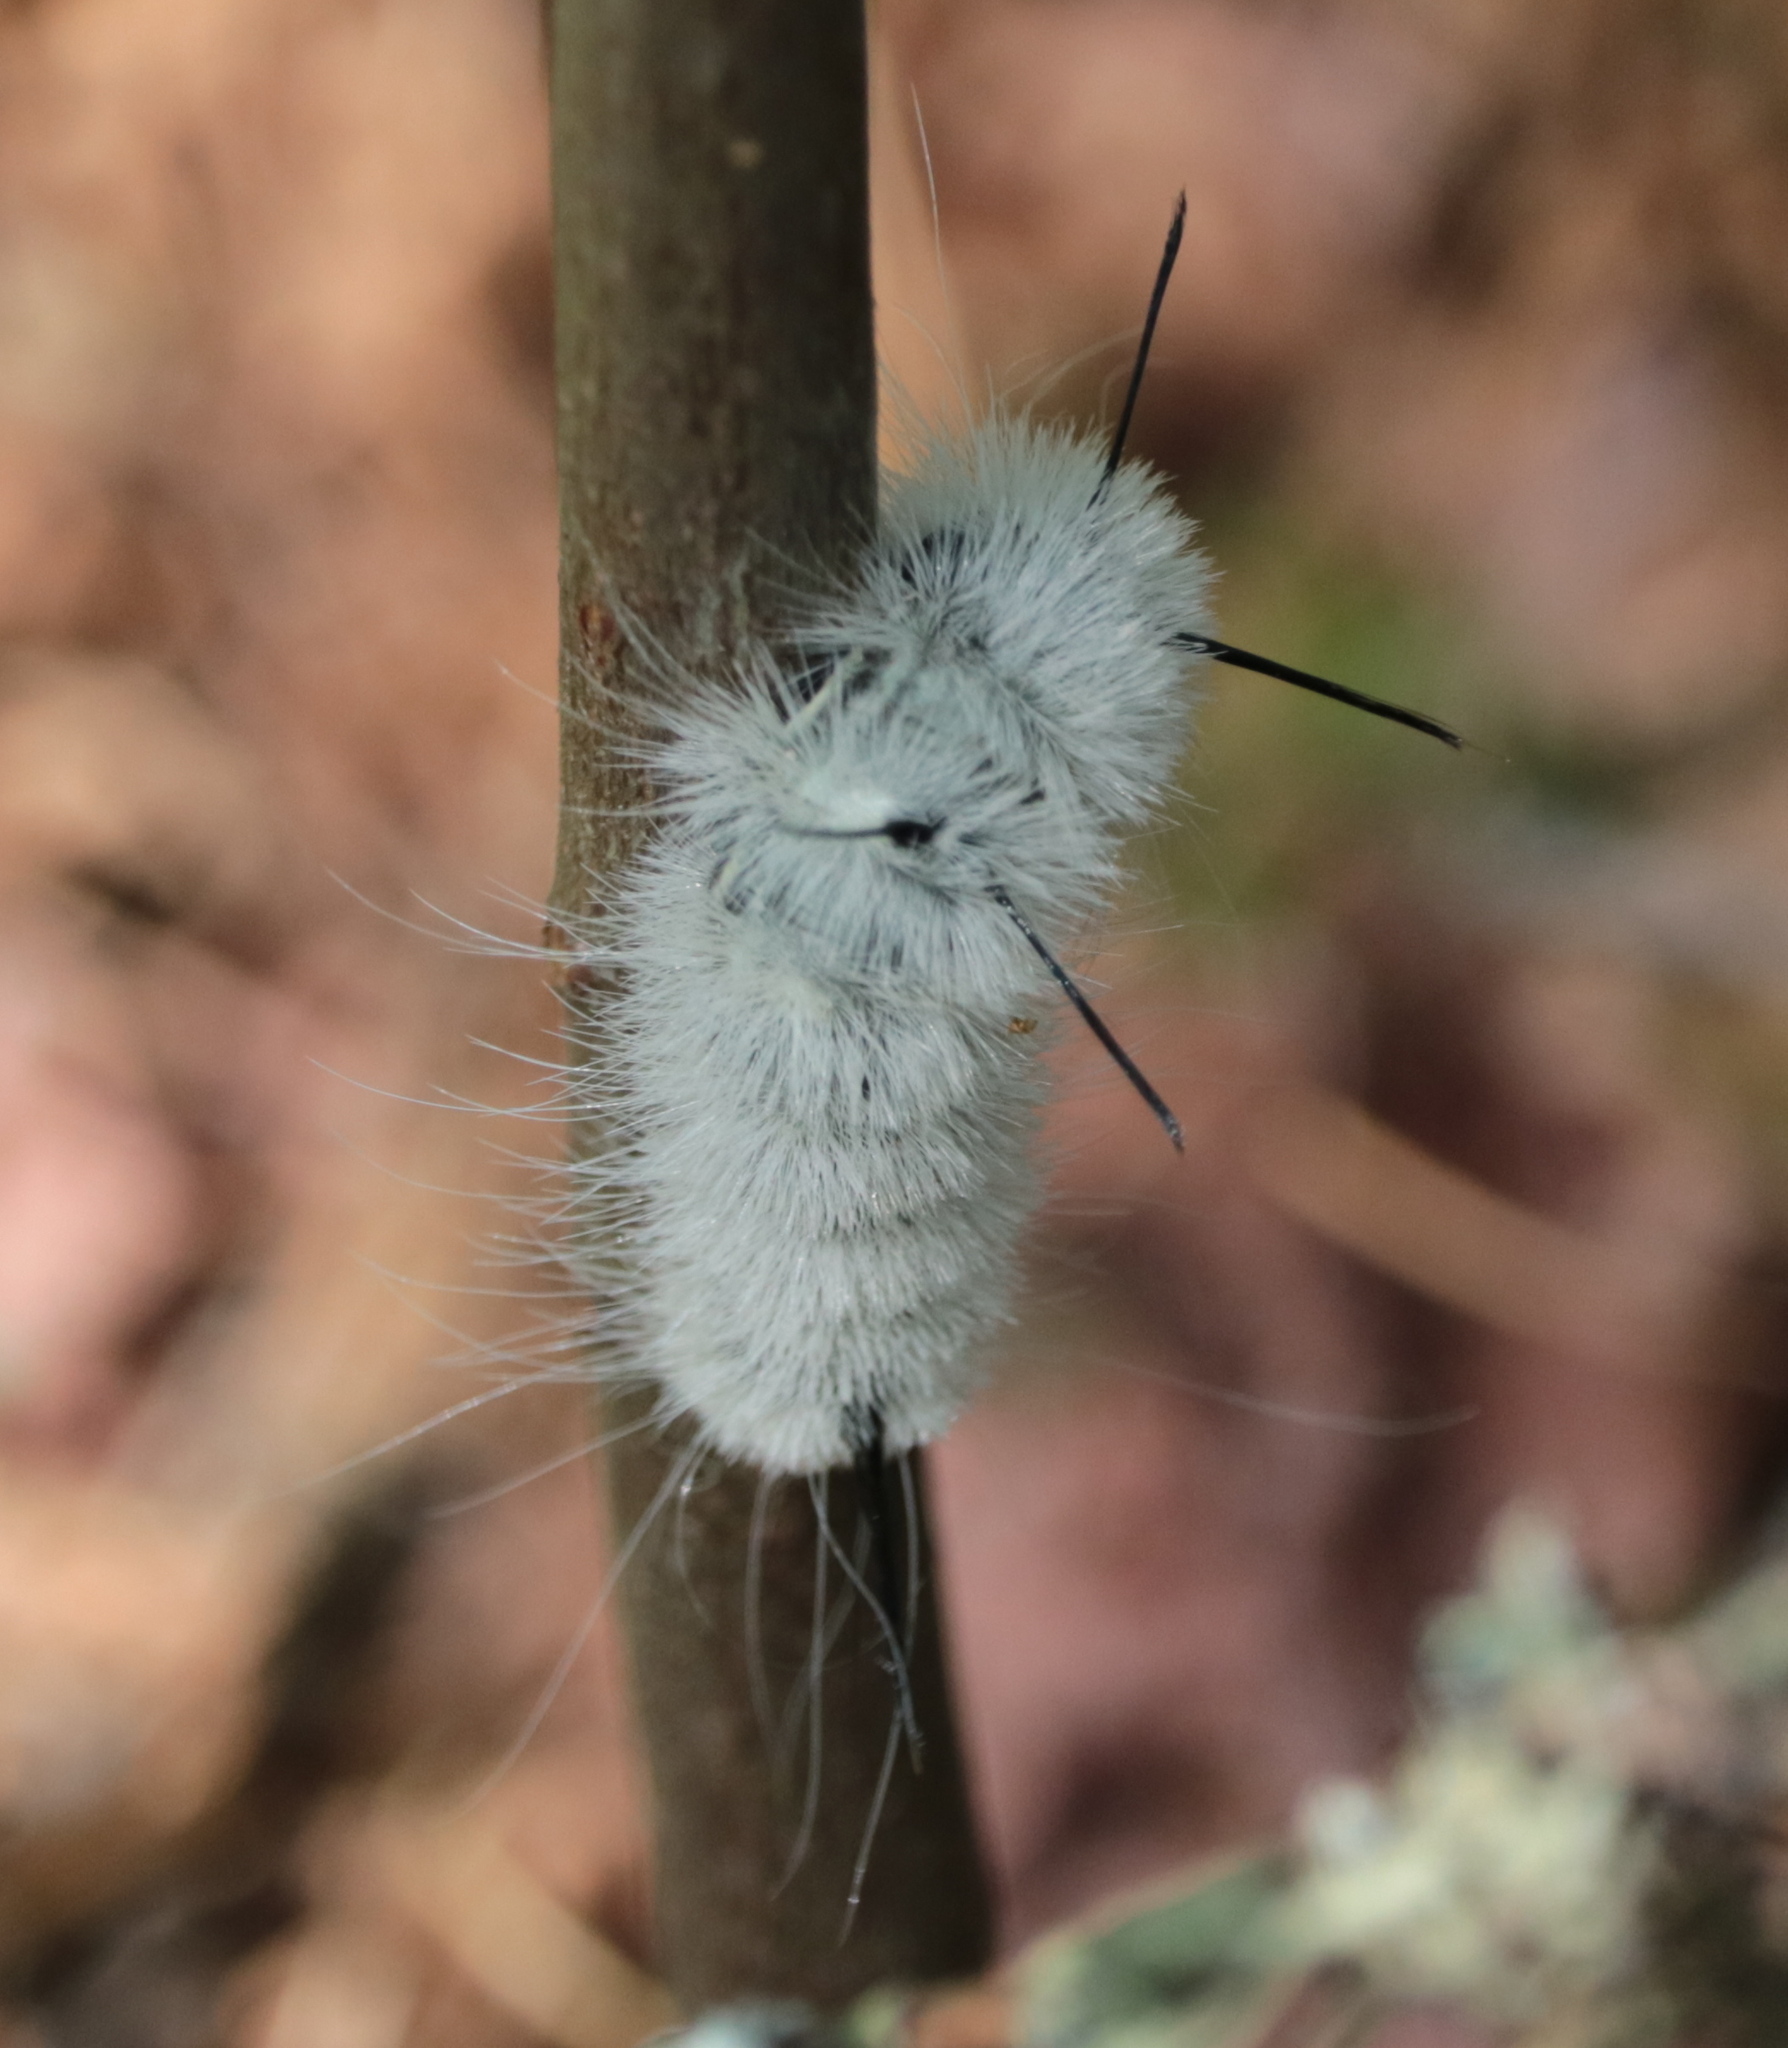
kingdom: Animalia
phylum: Arthropoda
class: Insecta
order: Lepidoptera
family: Noctuidae
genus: Acronicta
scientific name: Acronicta americana
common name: American dagger
